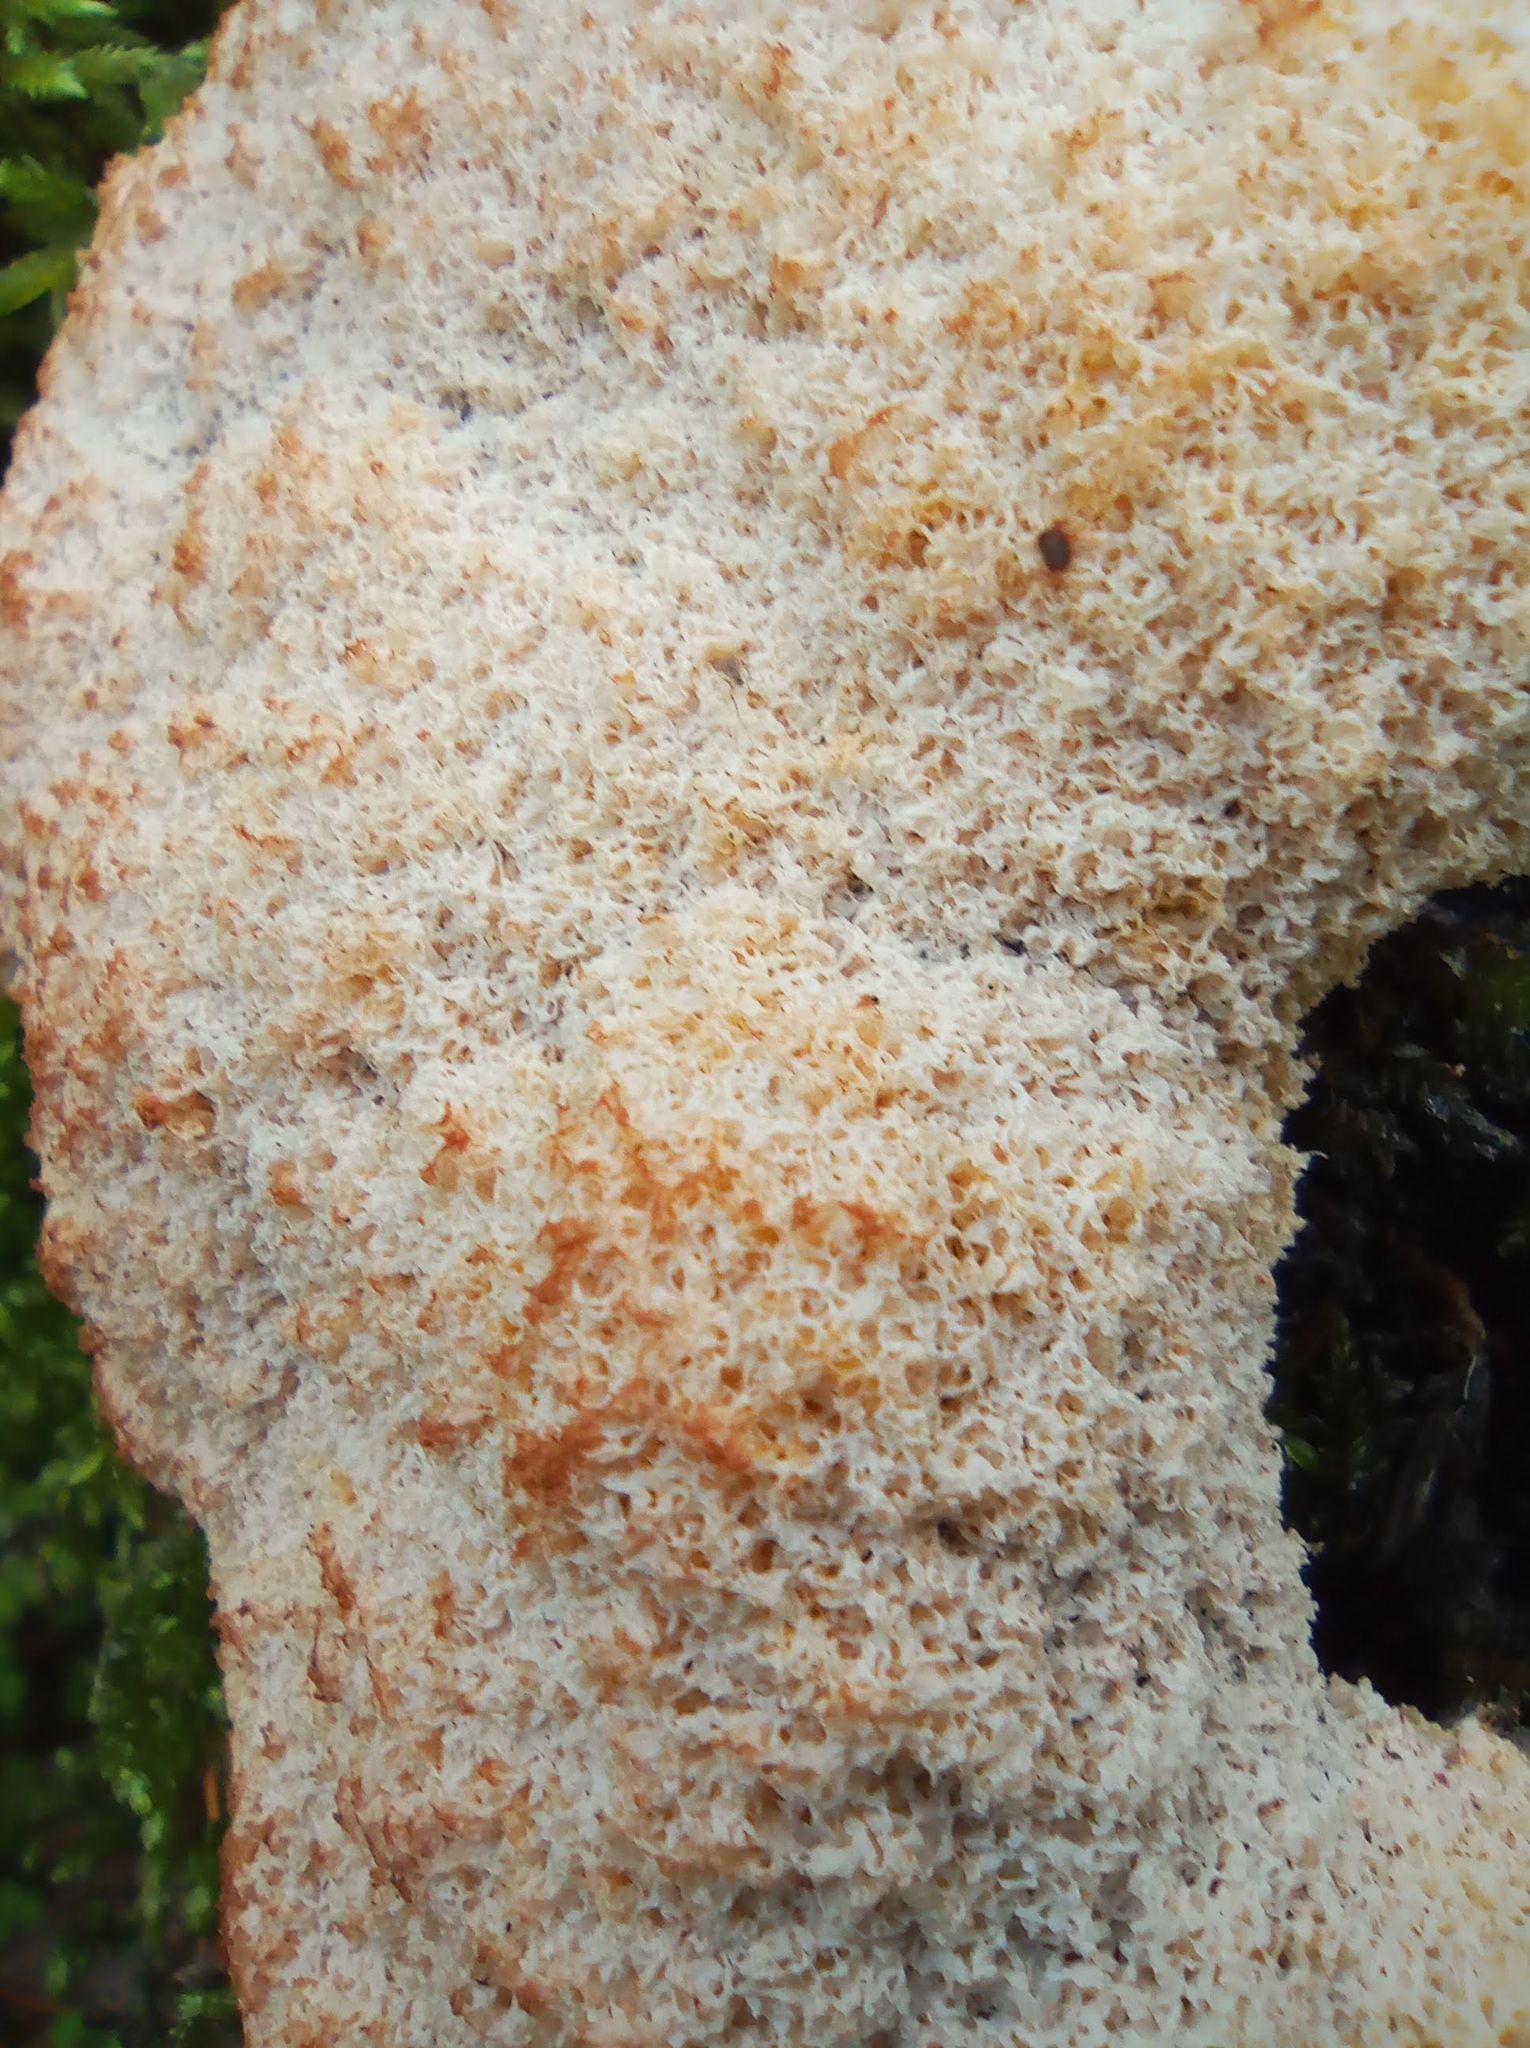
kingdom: Protozoa
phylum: Mycetozoa
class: Myxomycetes
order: Physarales
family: Physaraceae
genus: Fuligo
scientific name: Fuligo septica
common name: Dog vomit slime mold
